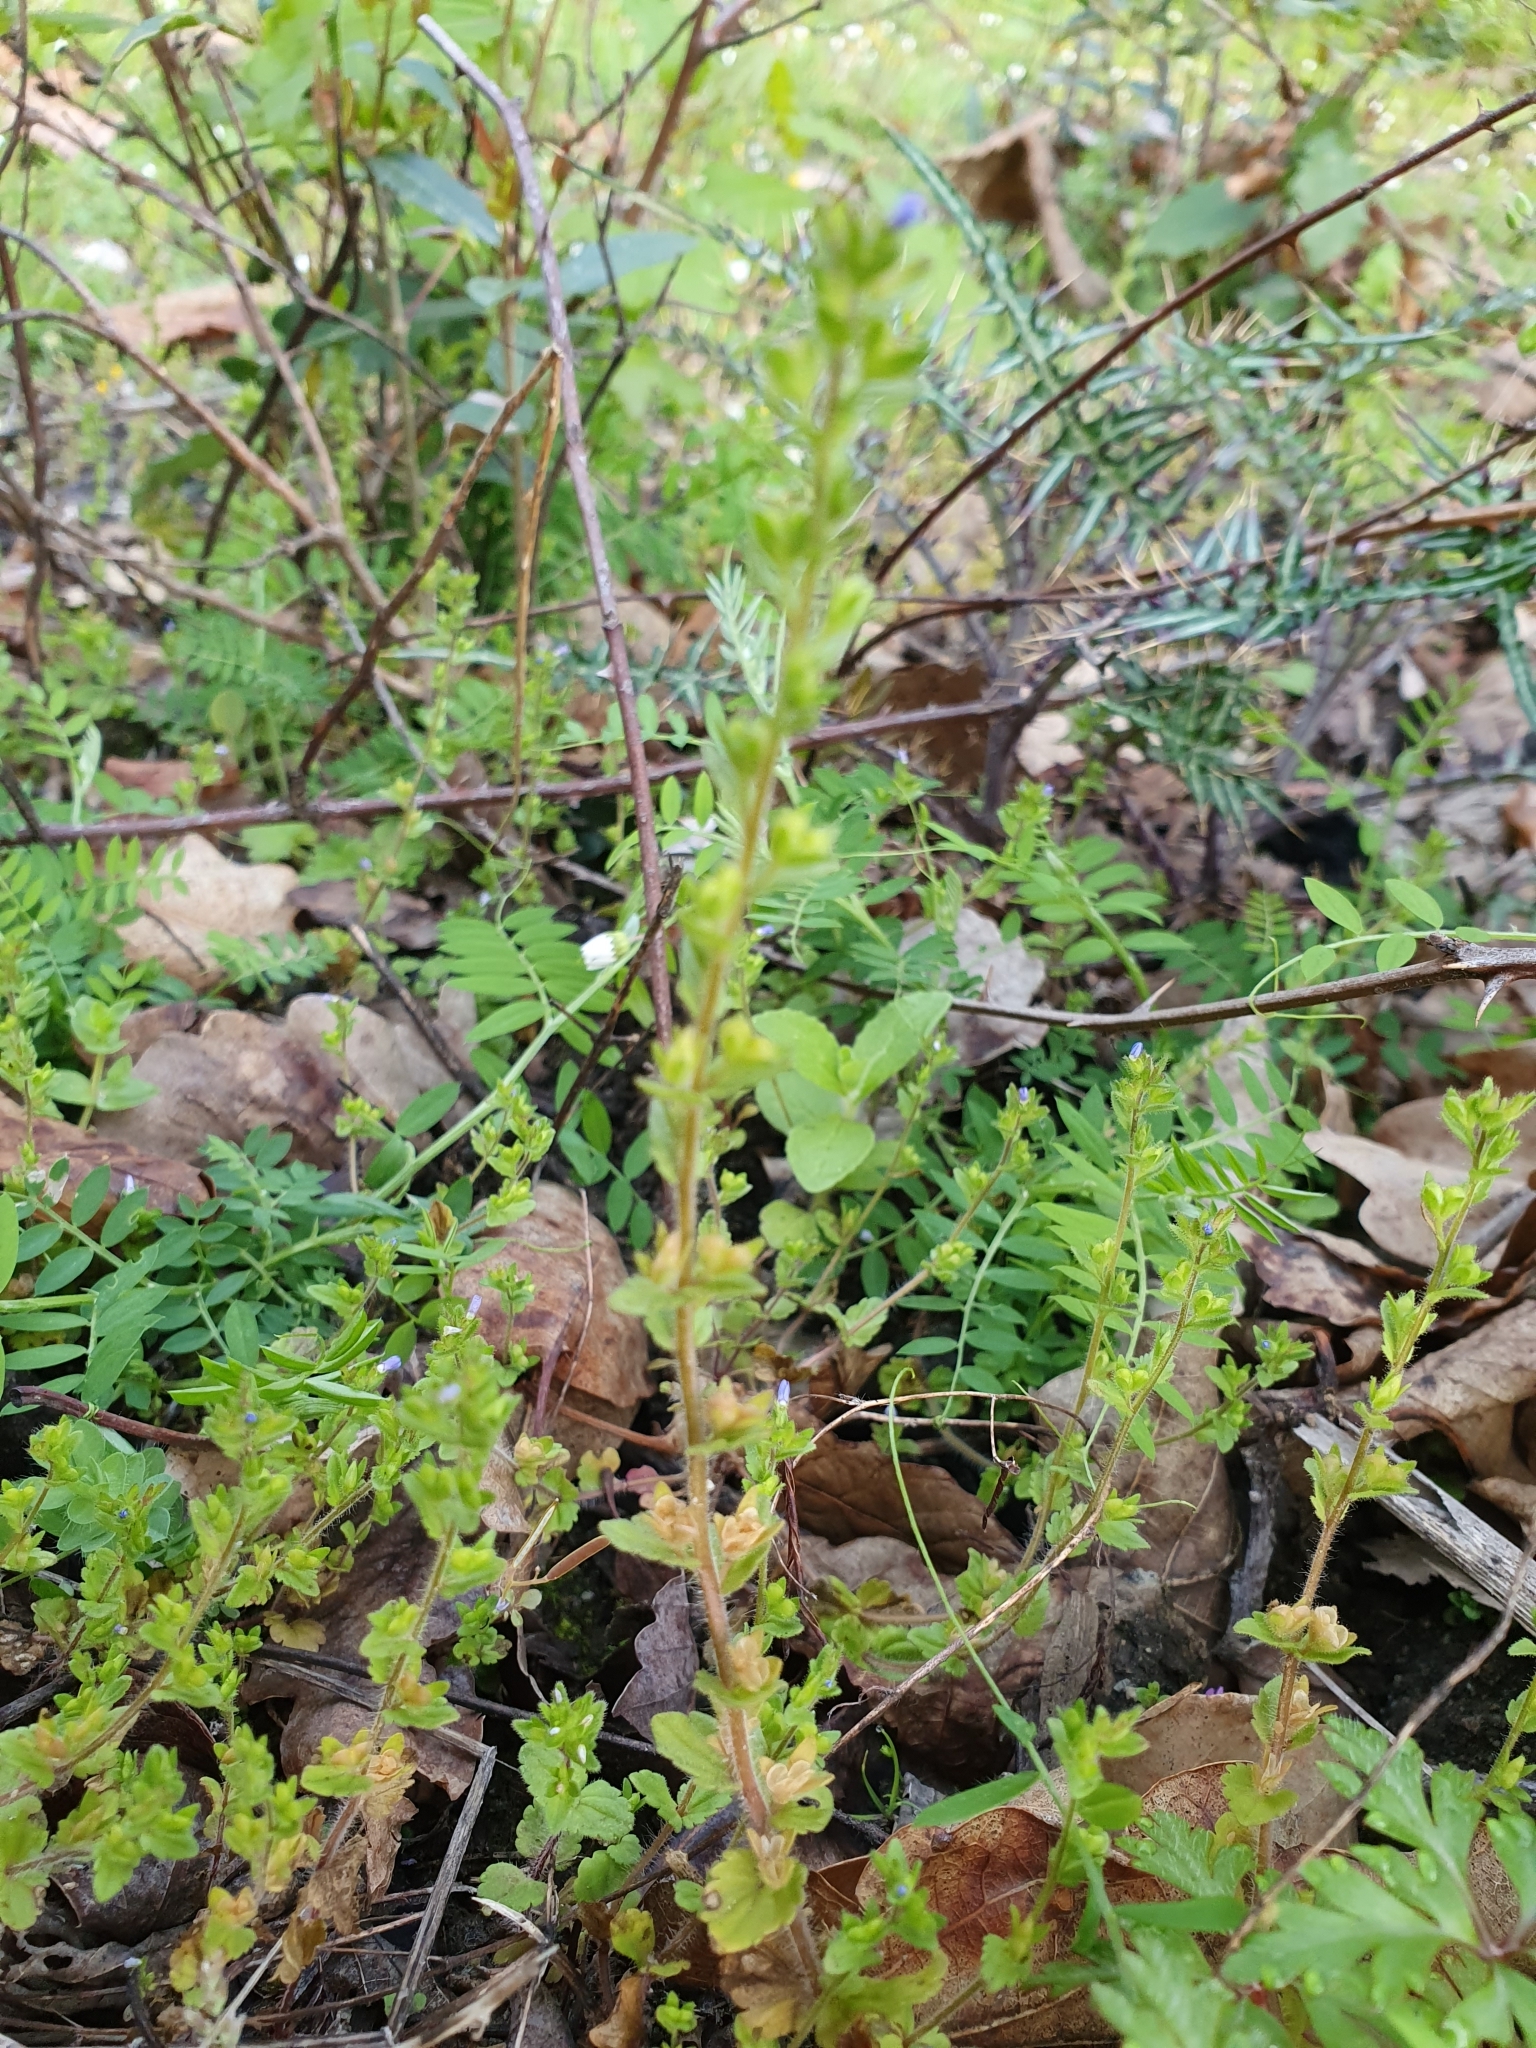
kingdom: Plantae
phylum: Tracheophyta
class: Magnoliopsida
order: Lamiales
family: Plantaginaceae
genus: Veronica
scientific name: Veronica arvensis
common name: Corn speedwell
